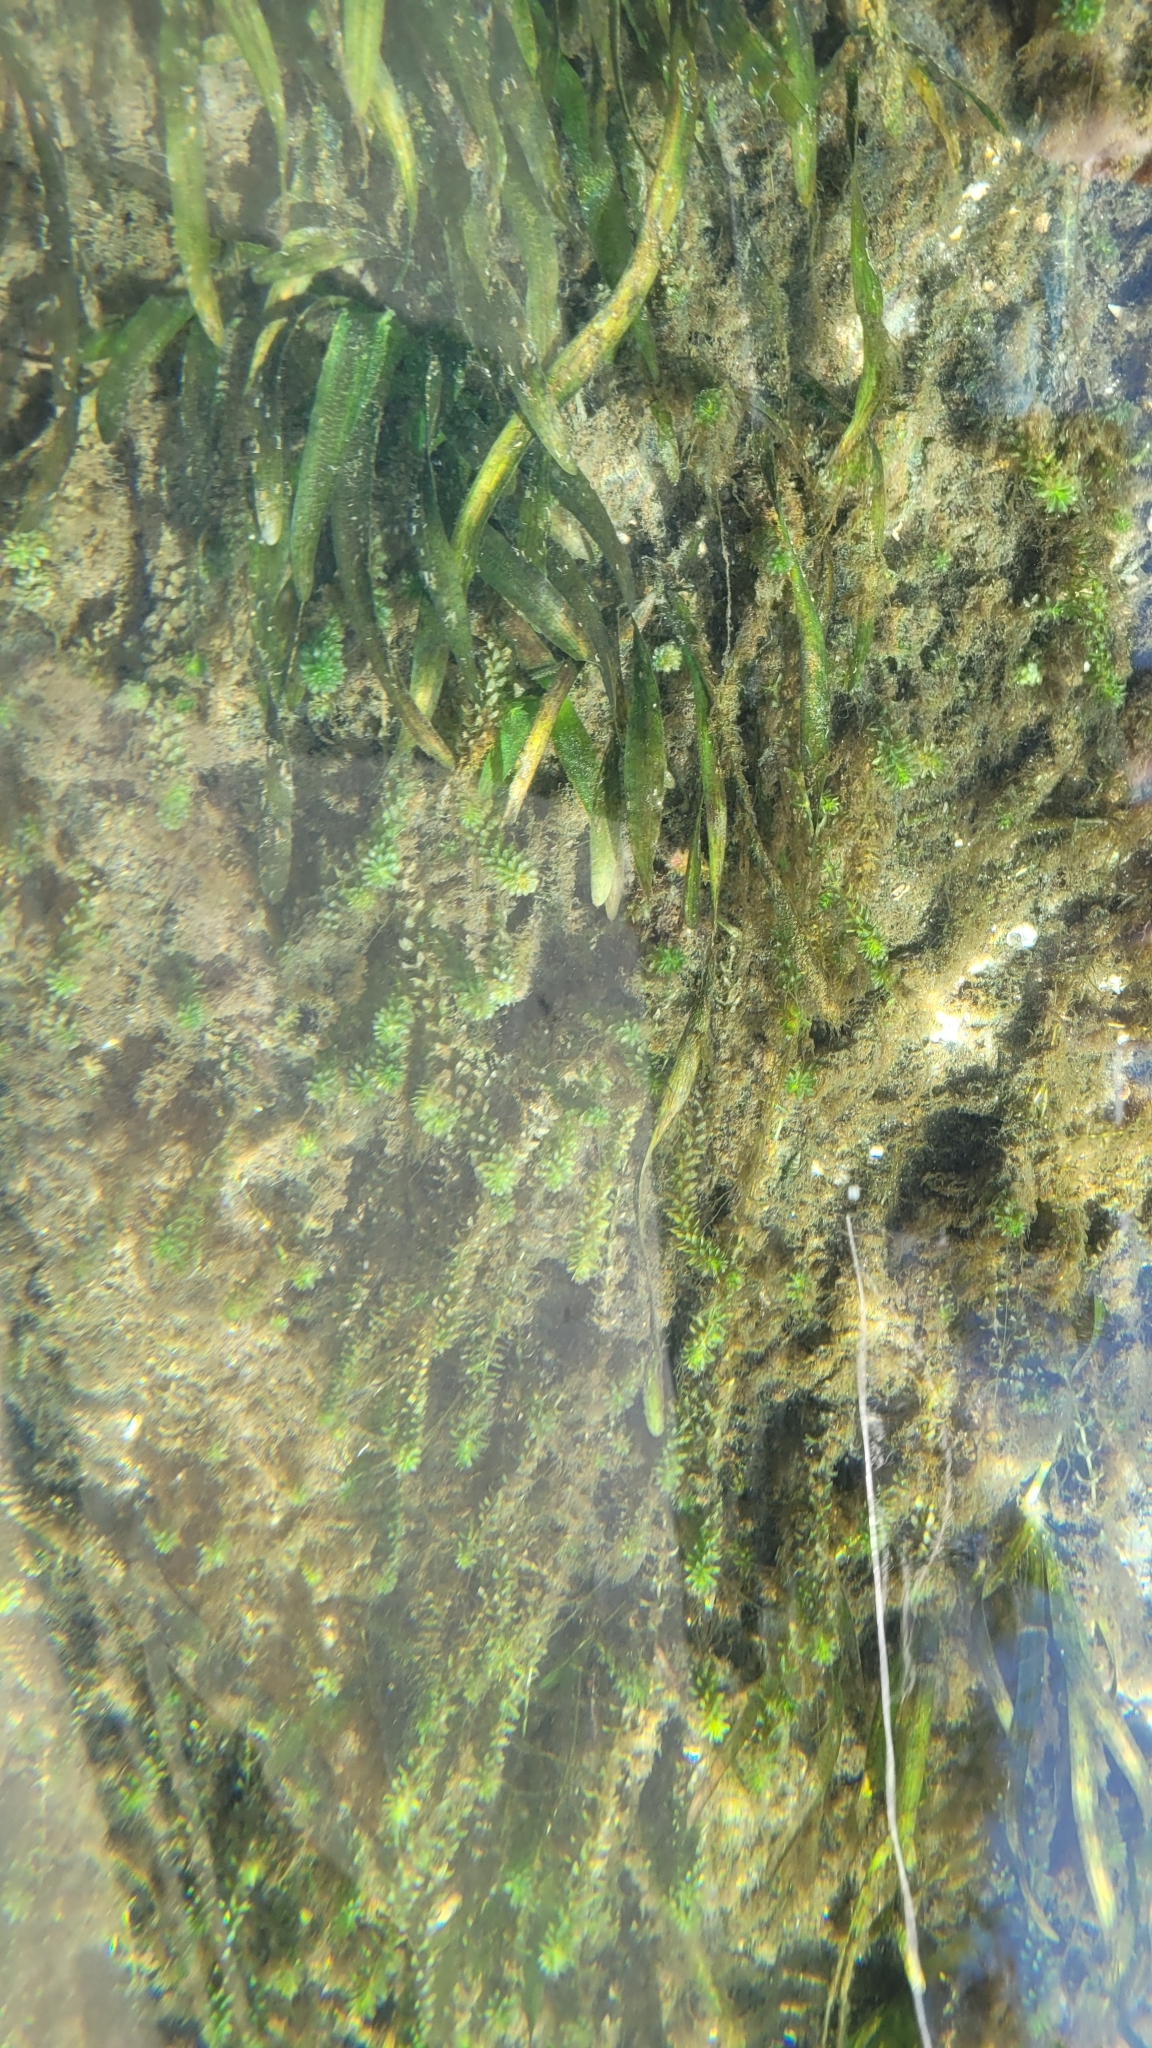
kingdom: Plantae
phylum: Tracheophyta
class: Liliopsida
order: Alismatales
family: Hydrocharitaceae
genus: Hydrilla
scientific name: Hydrilla verticillata
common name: Florida-elodea
